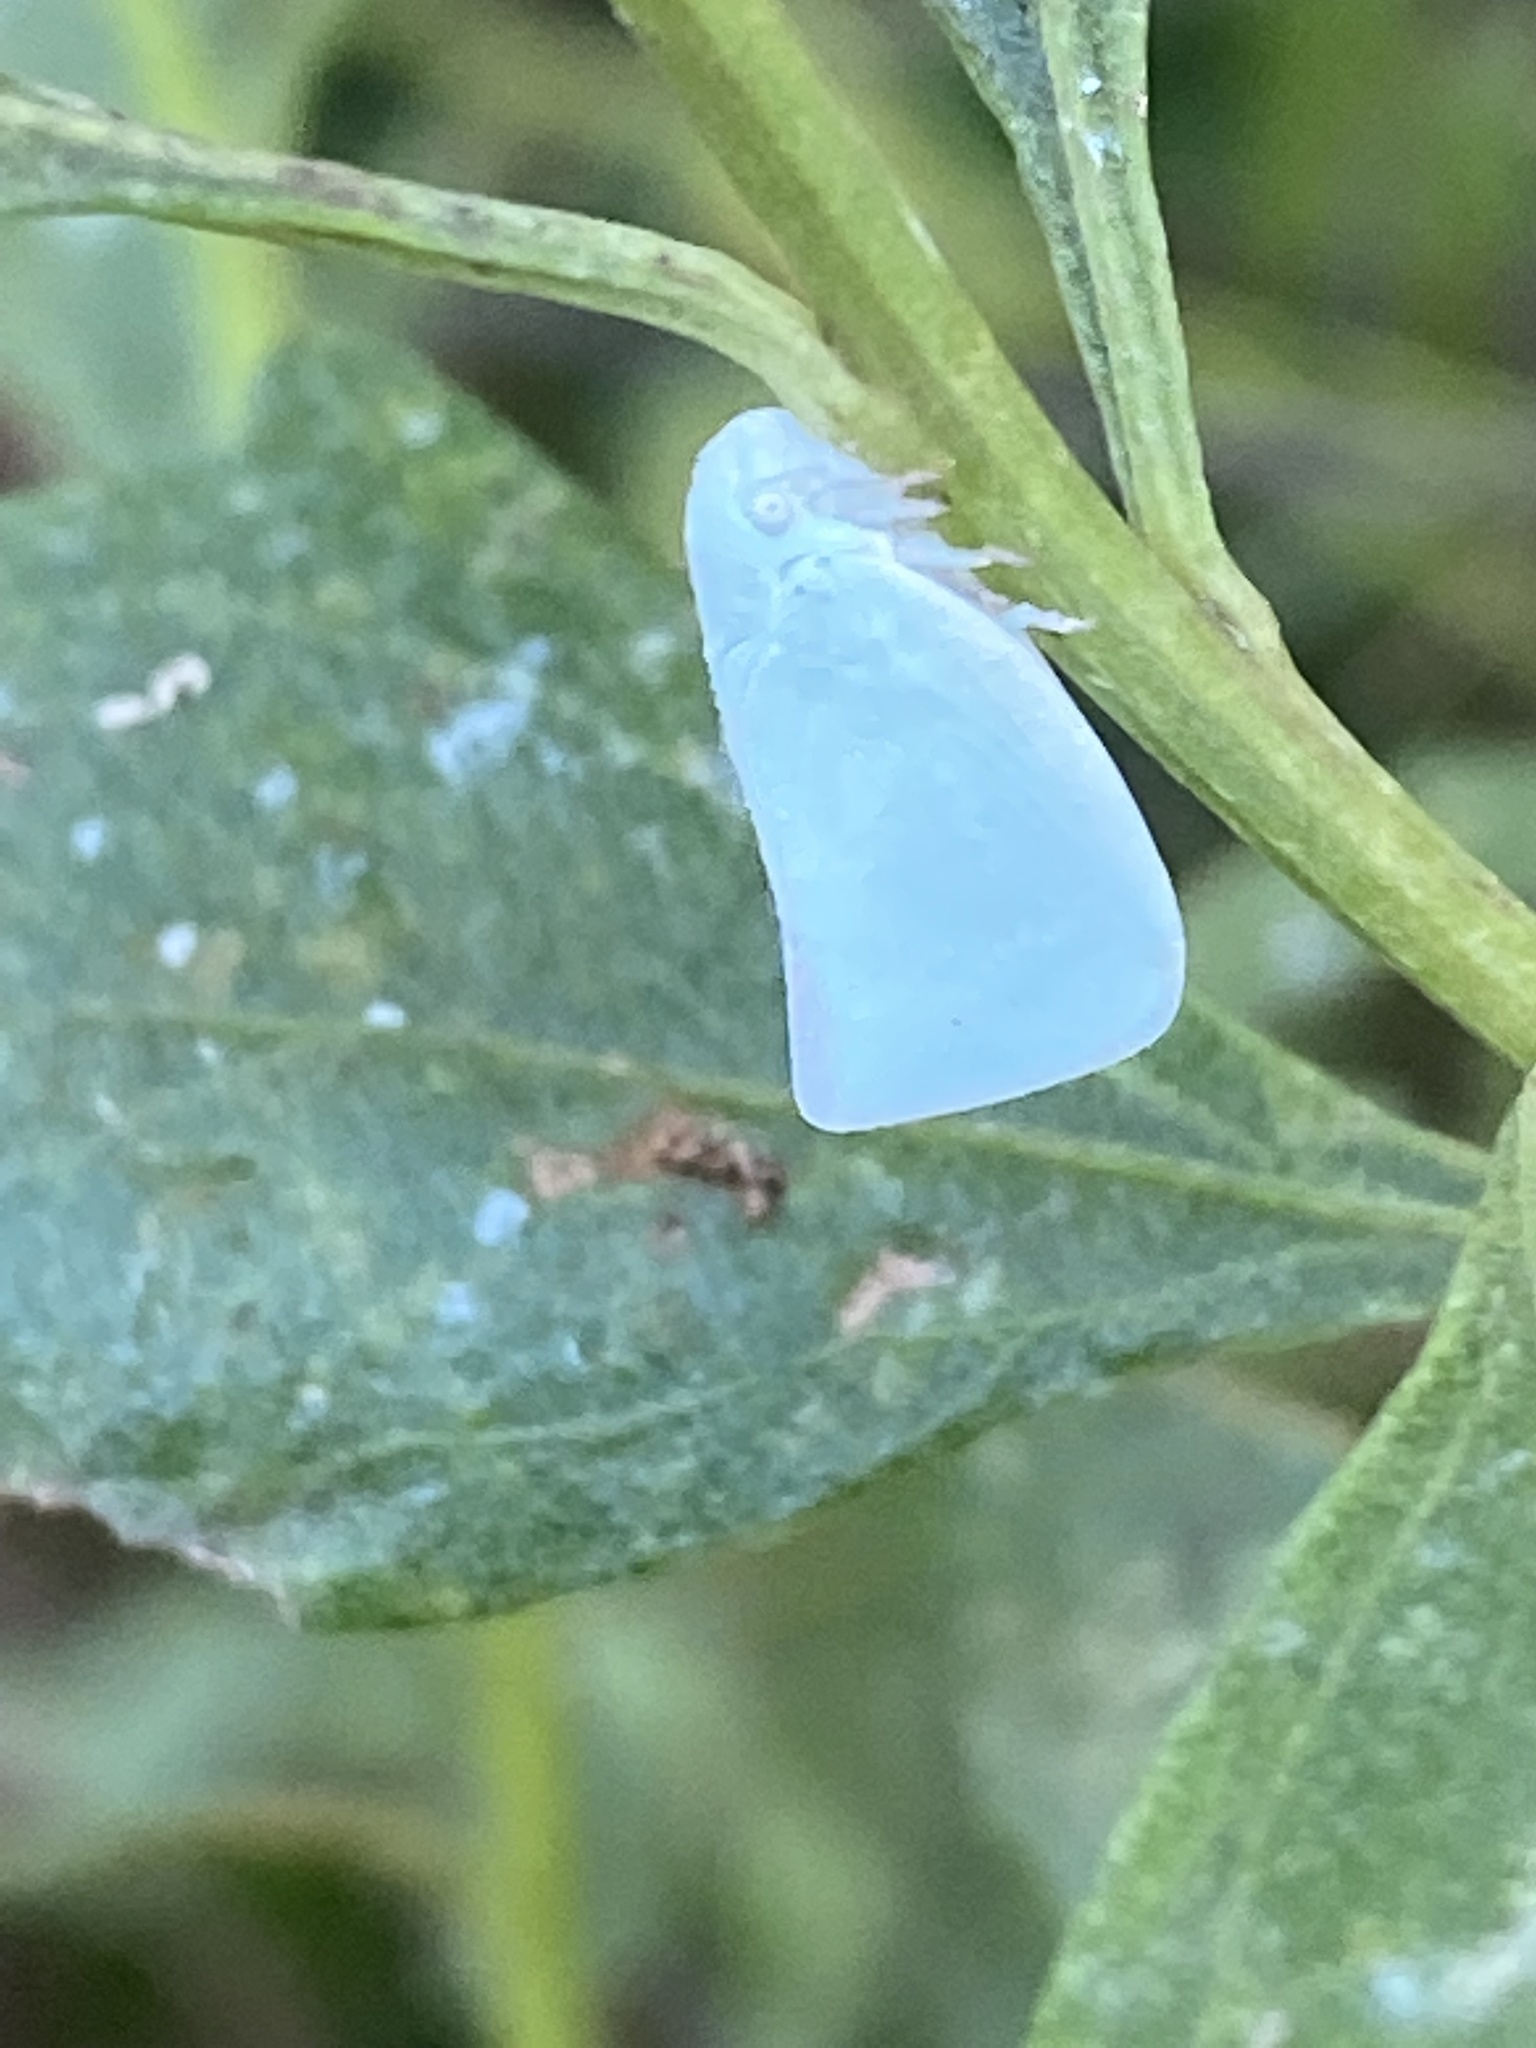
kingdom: Animalia
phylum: Arthropoda
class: Insecta
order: Hemiptera
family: Flatidae
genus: Flatormenis
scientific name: Flatormenis proxima
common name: Northern flatid planthopper
